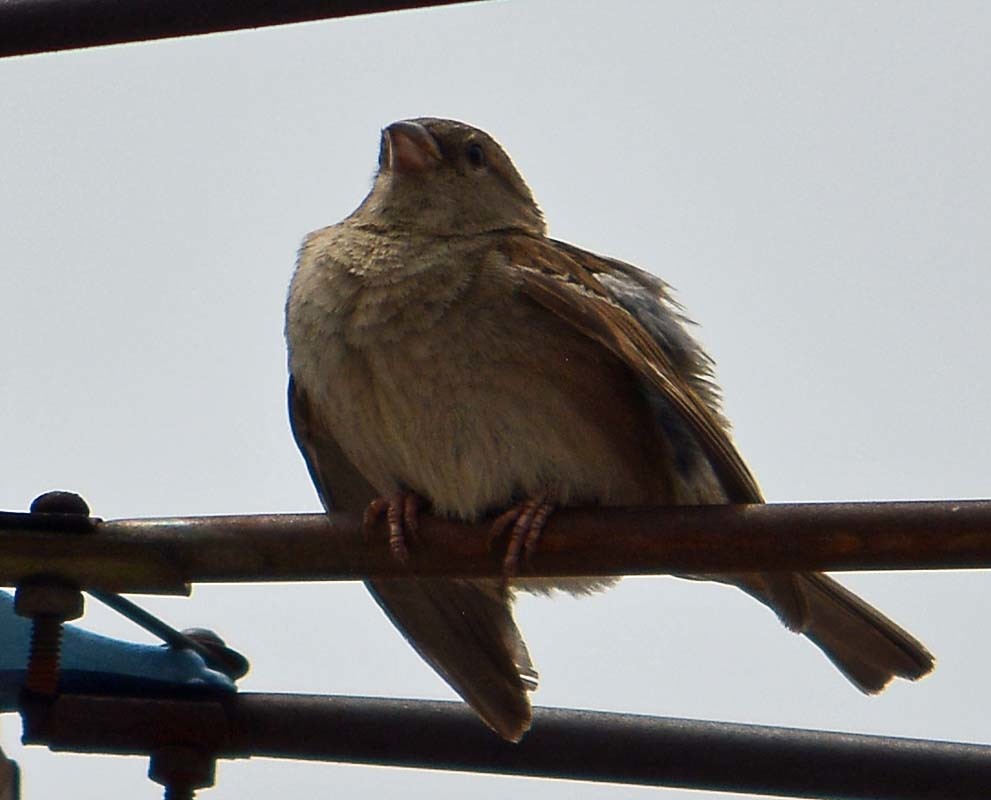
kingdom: Animalia
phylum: Chordata
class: Aves
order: Passeriformes
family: Passeridae
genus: Passer
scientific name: Passer domesticus
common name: House sparrow
